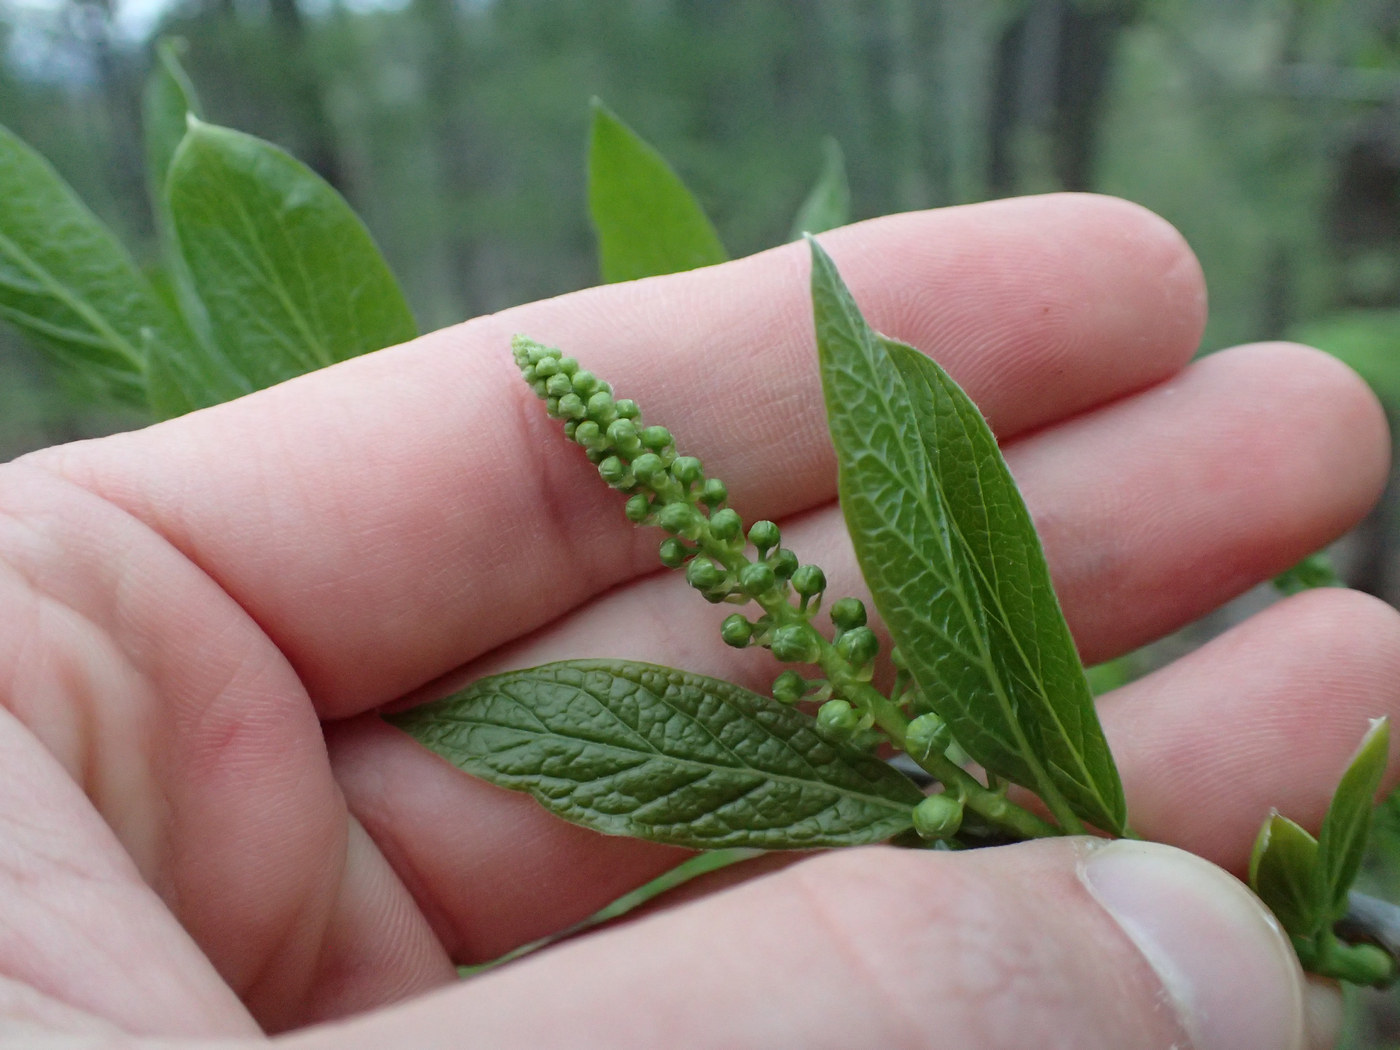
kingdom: Plantae
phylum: Tracheophyta
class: Magnoliopsida
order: Santalales
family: Cervantesiaceae
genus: Pyrularia
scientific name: Pyrularia pubera
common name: Oilnut
